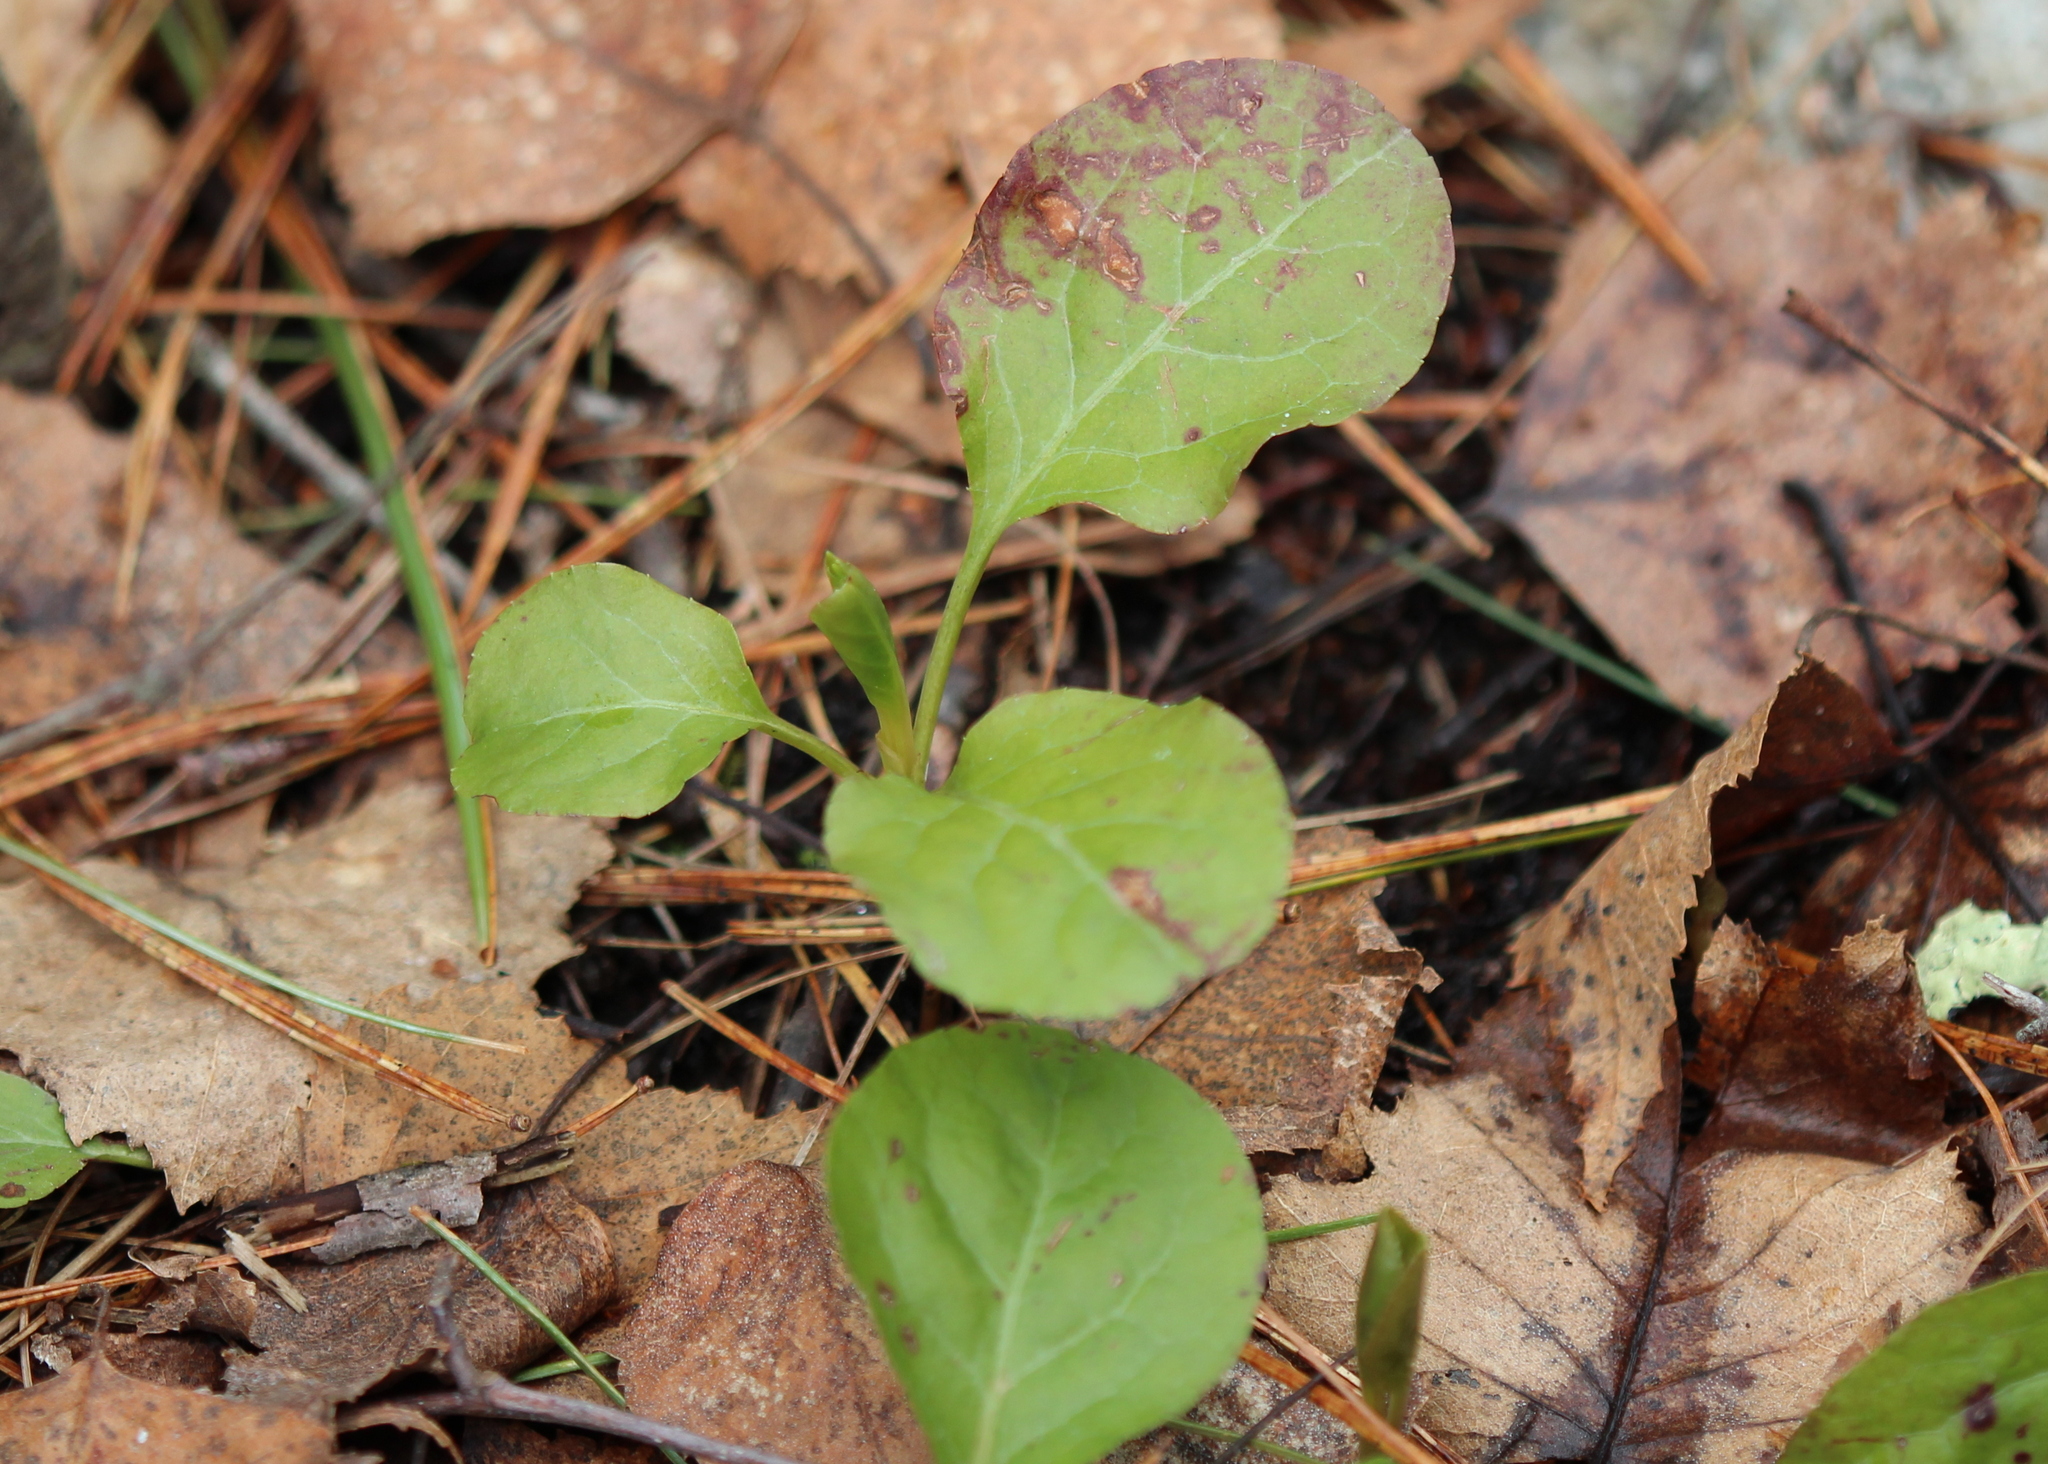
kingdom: Plantae
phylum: Tracheophyta
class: Magnoliopsida
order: Ericales
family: Ericaceae
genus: Pyrola
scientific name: Pyrola elliptica
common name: Shinleaf
